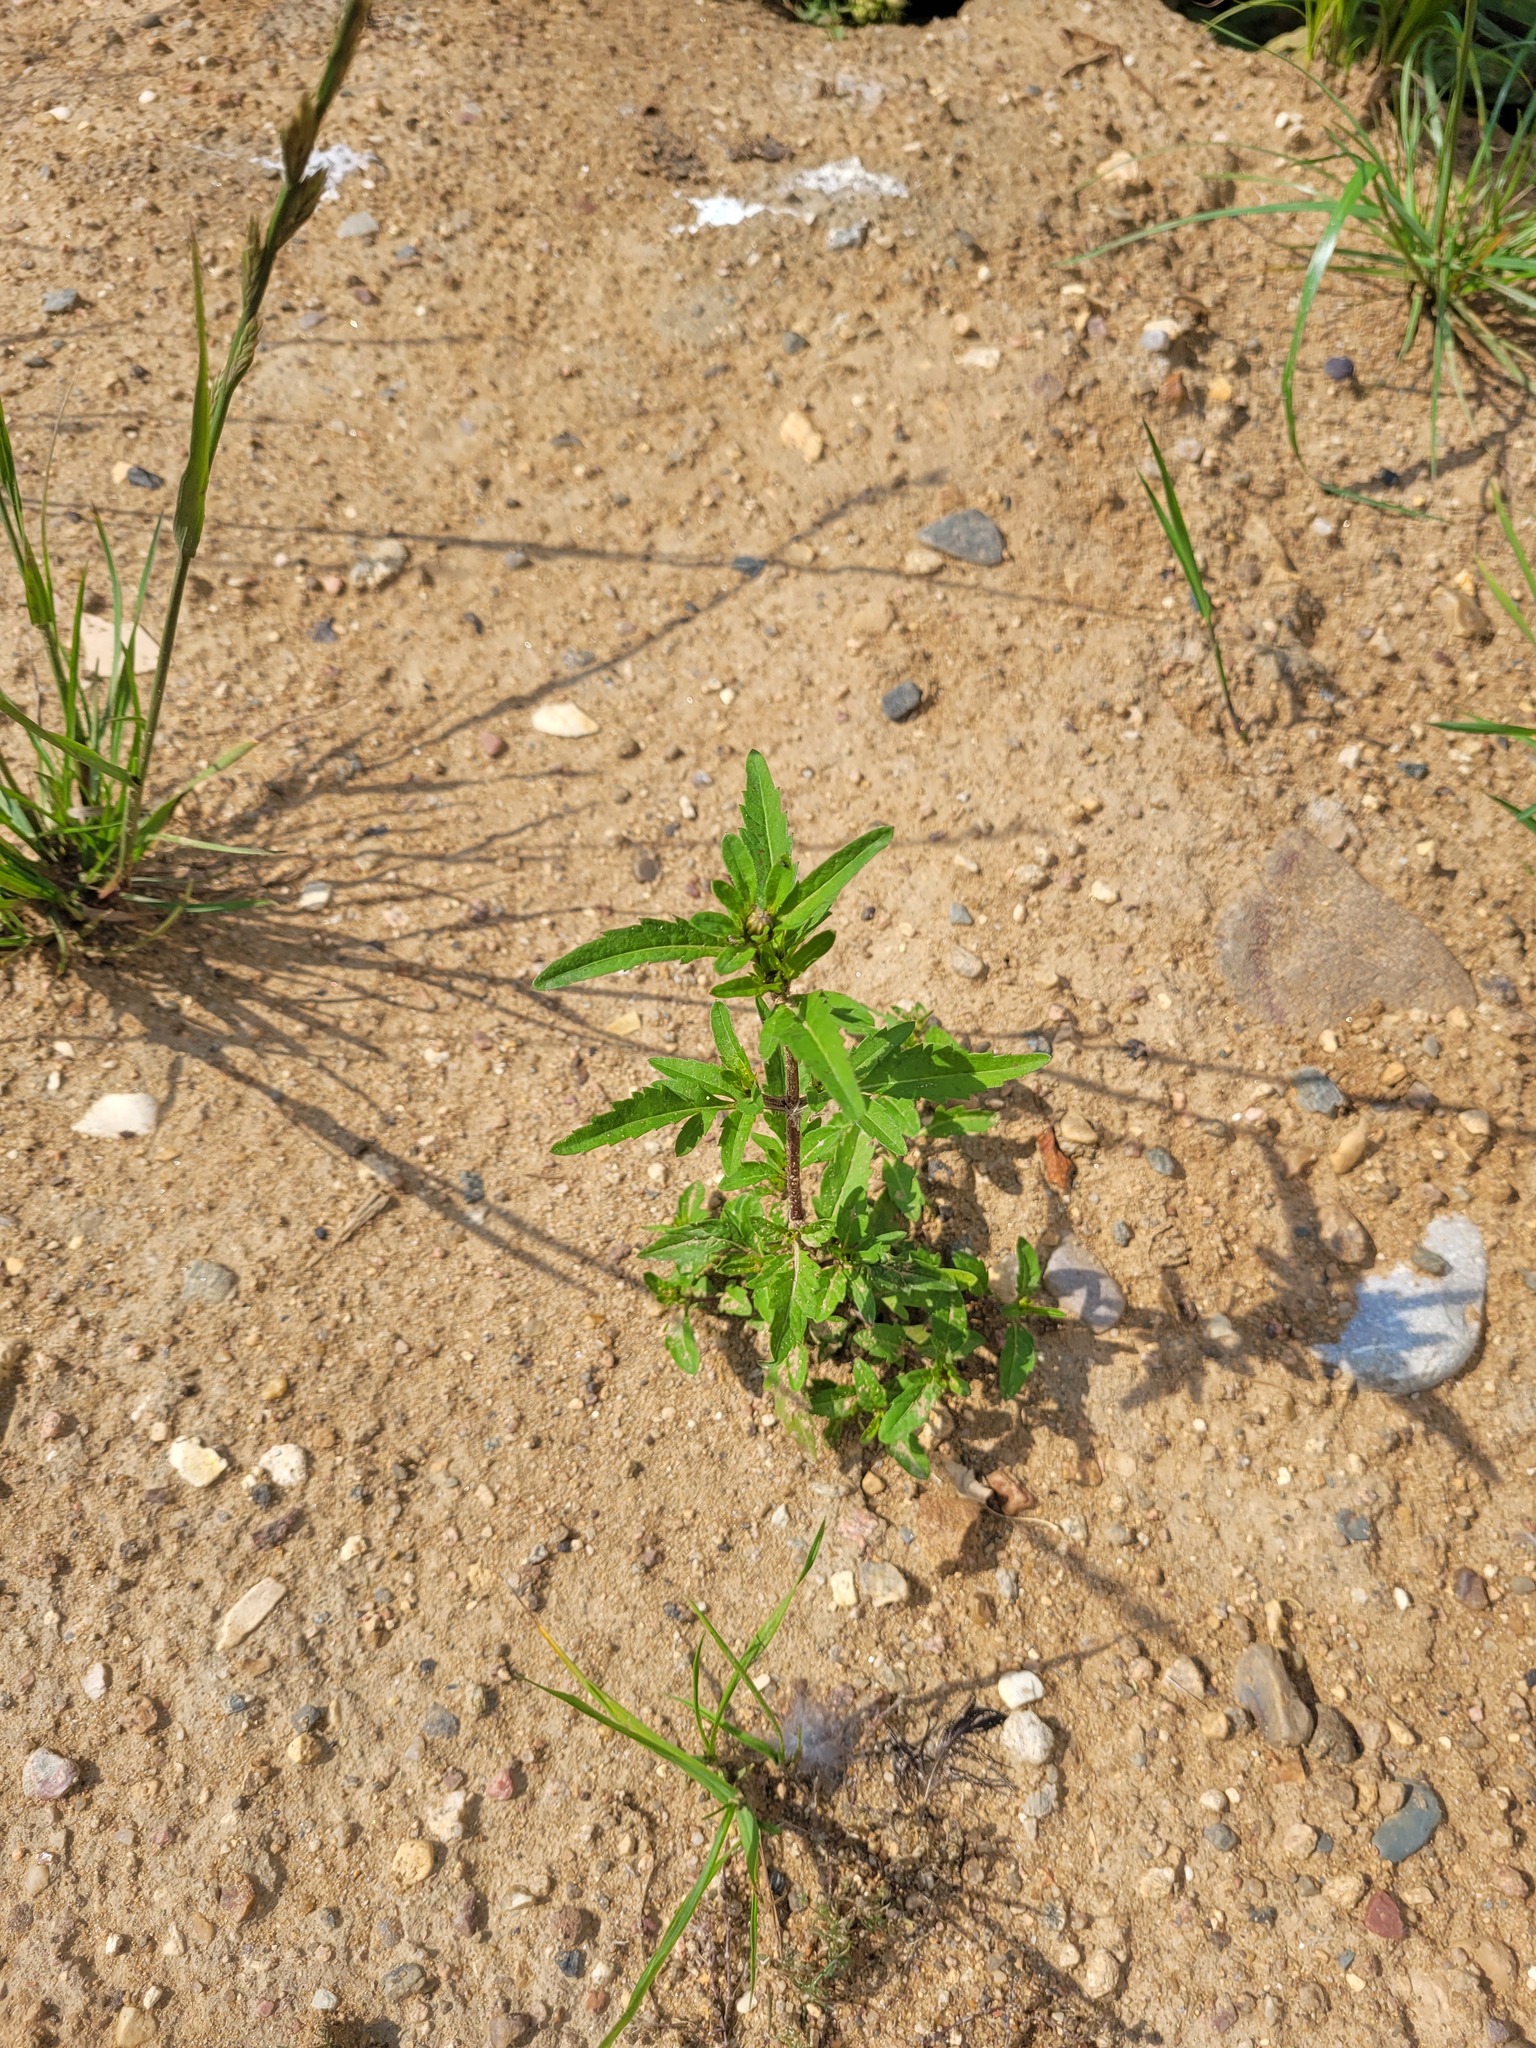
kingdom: Plantae
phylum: Tracheophyta
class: Magnoliopsida
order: Asterales
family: Asteraceae
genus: Bidens
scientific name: Bidens tripartita
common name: Trifid bur-marigold
